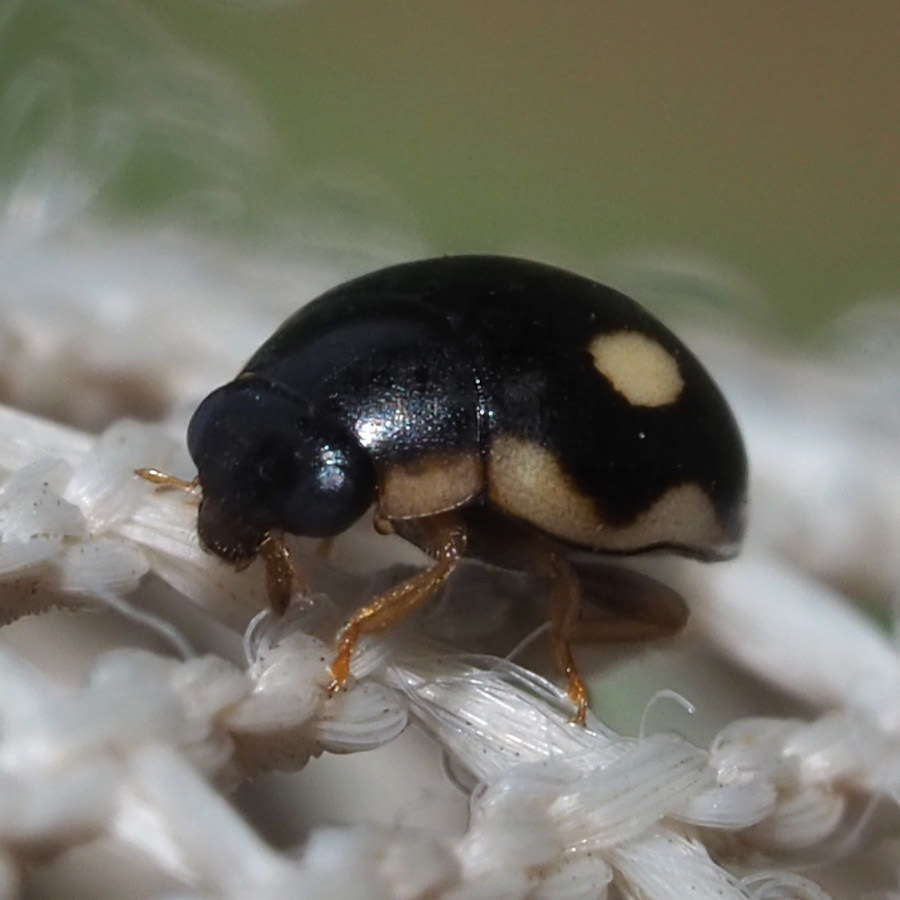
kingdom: Animalia
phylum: Arthropoda
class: Insecta
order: Coleoptera
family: Coccinellidae
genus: Hyperaspis
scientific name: Hyperaspis undulata
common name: Undulate sigil lady beetle
